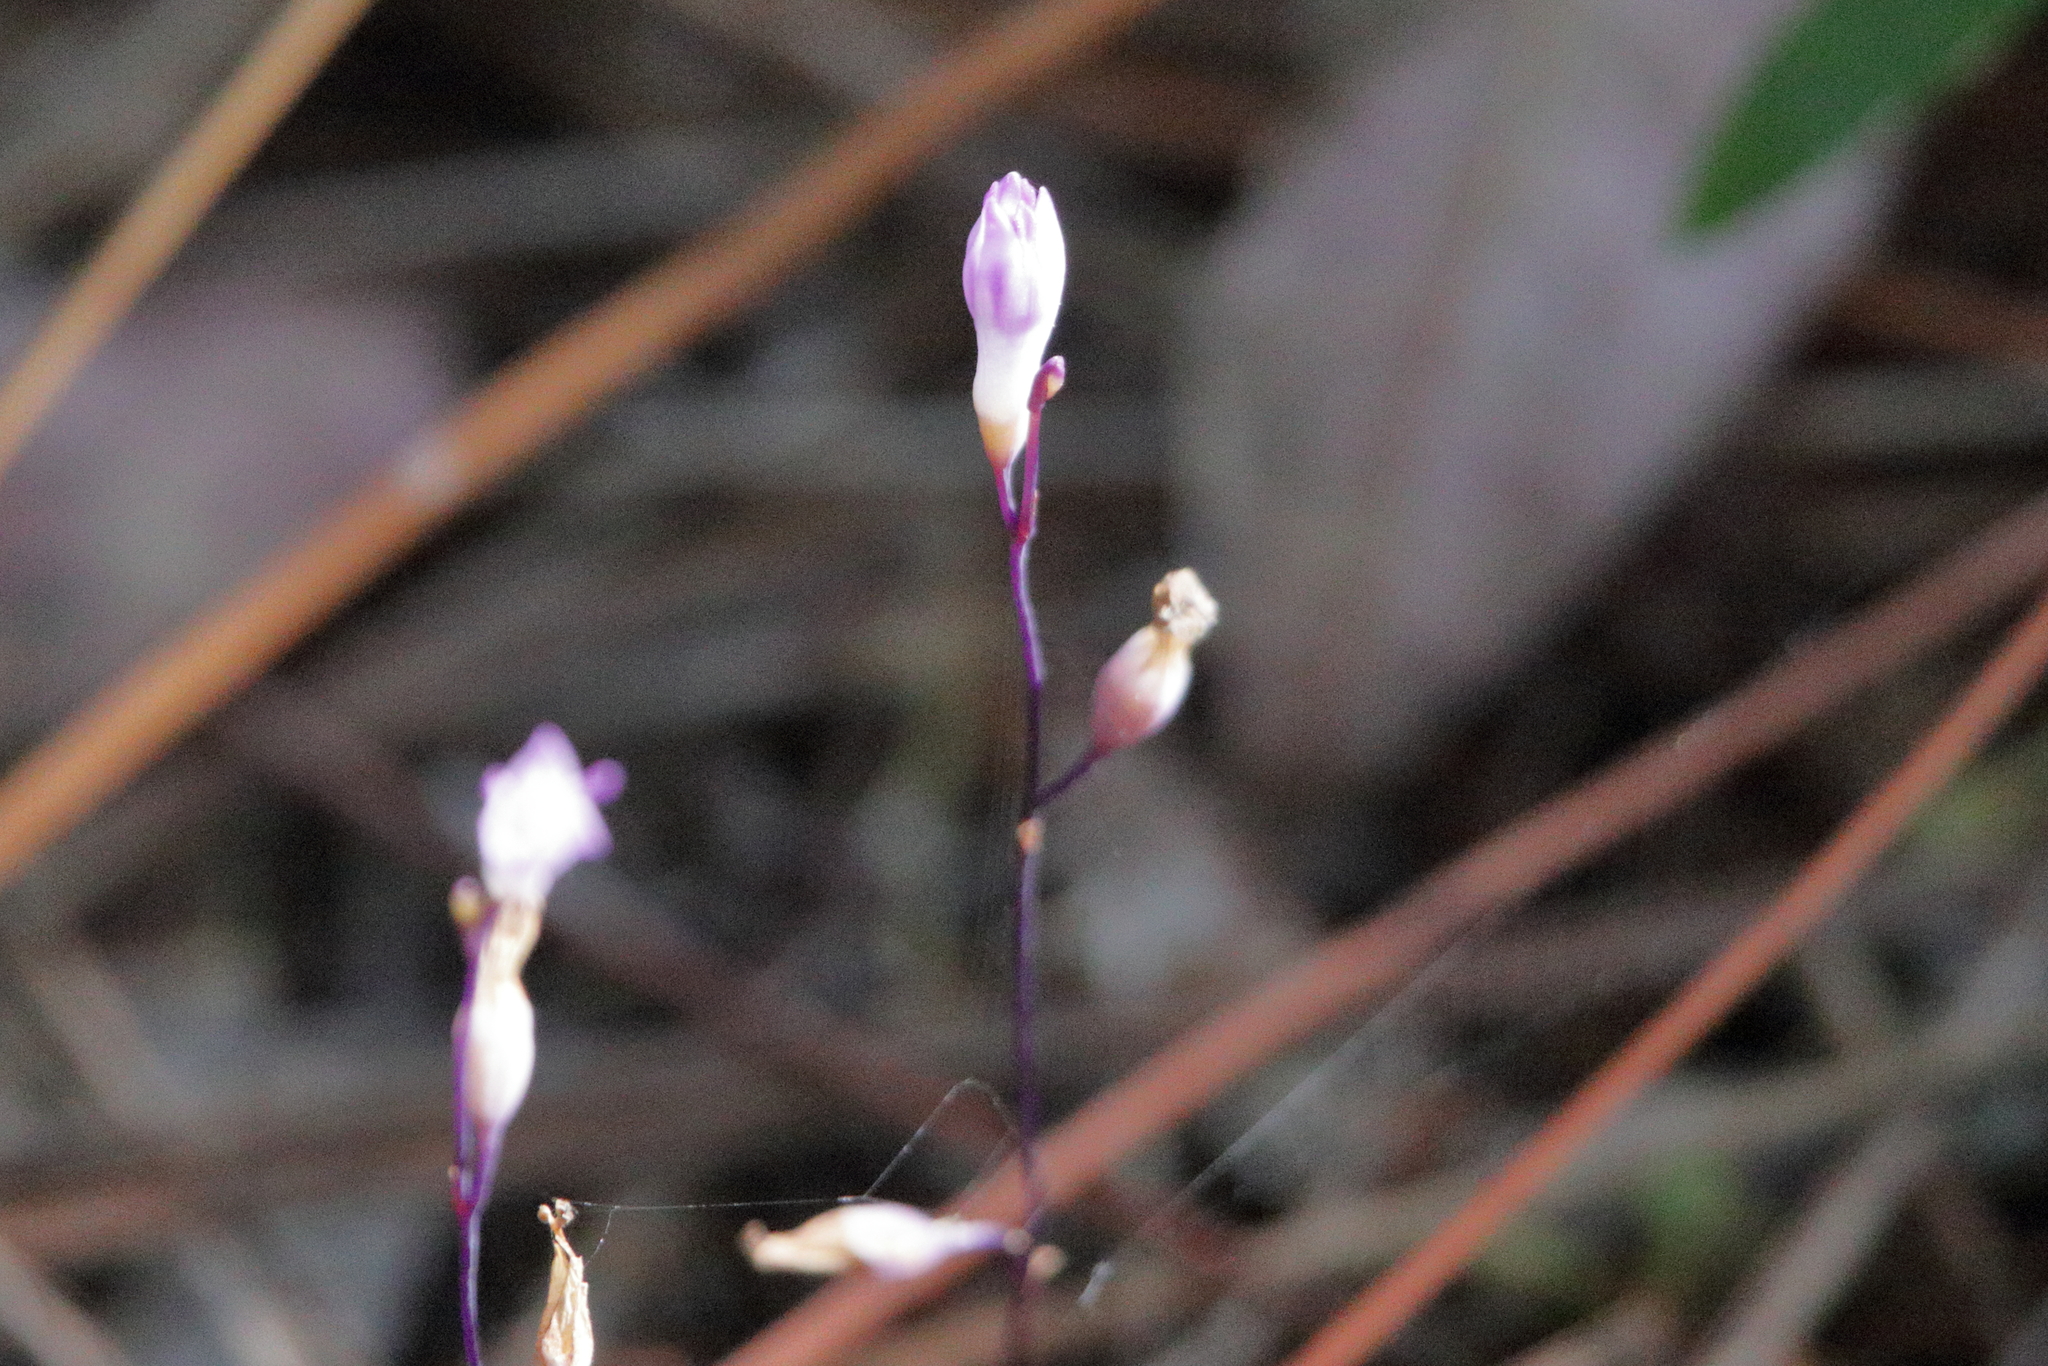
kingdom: Plantae
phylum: Tracheophyta
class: Liliopsida
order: Dioscoreales
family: Burmanniaceae
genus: Apteria
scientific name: Apteria aphylla
